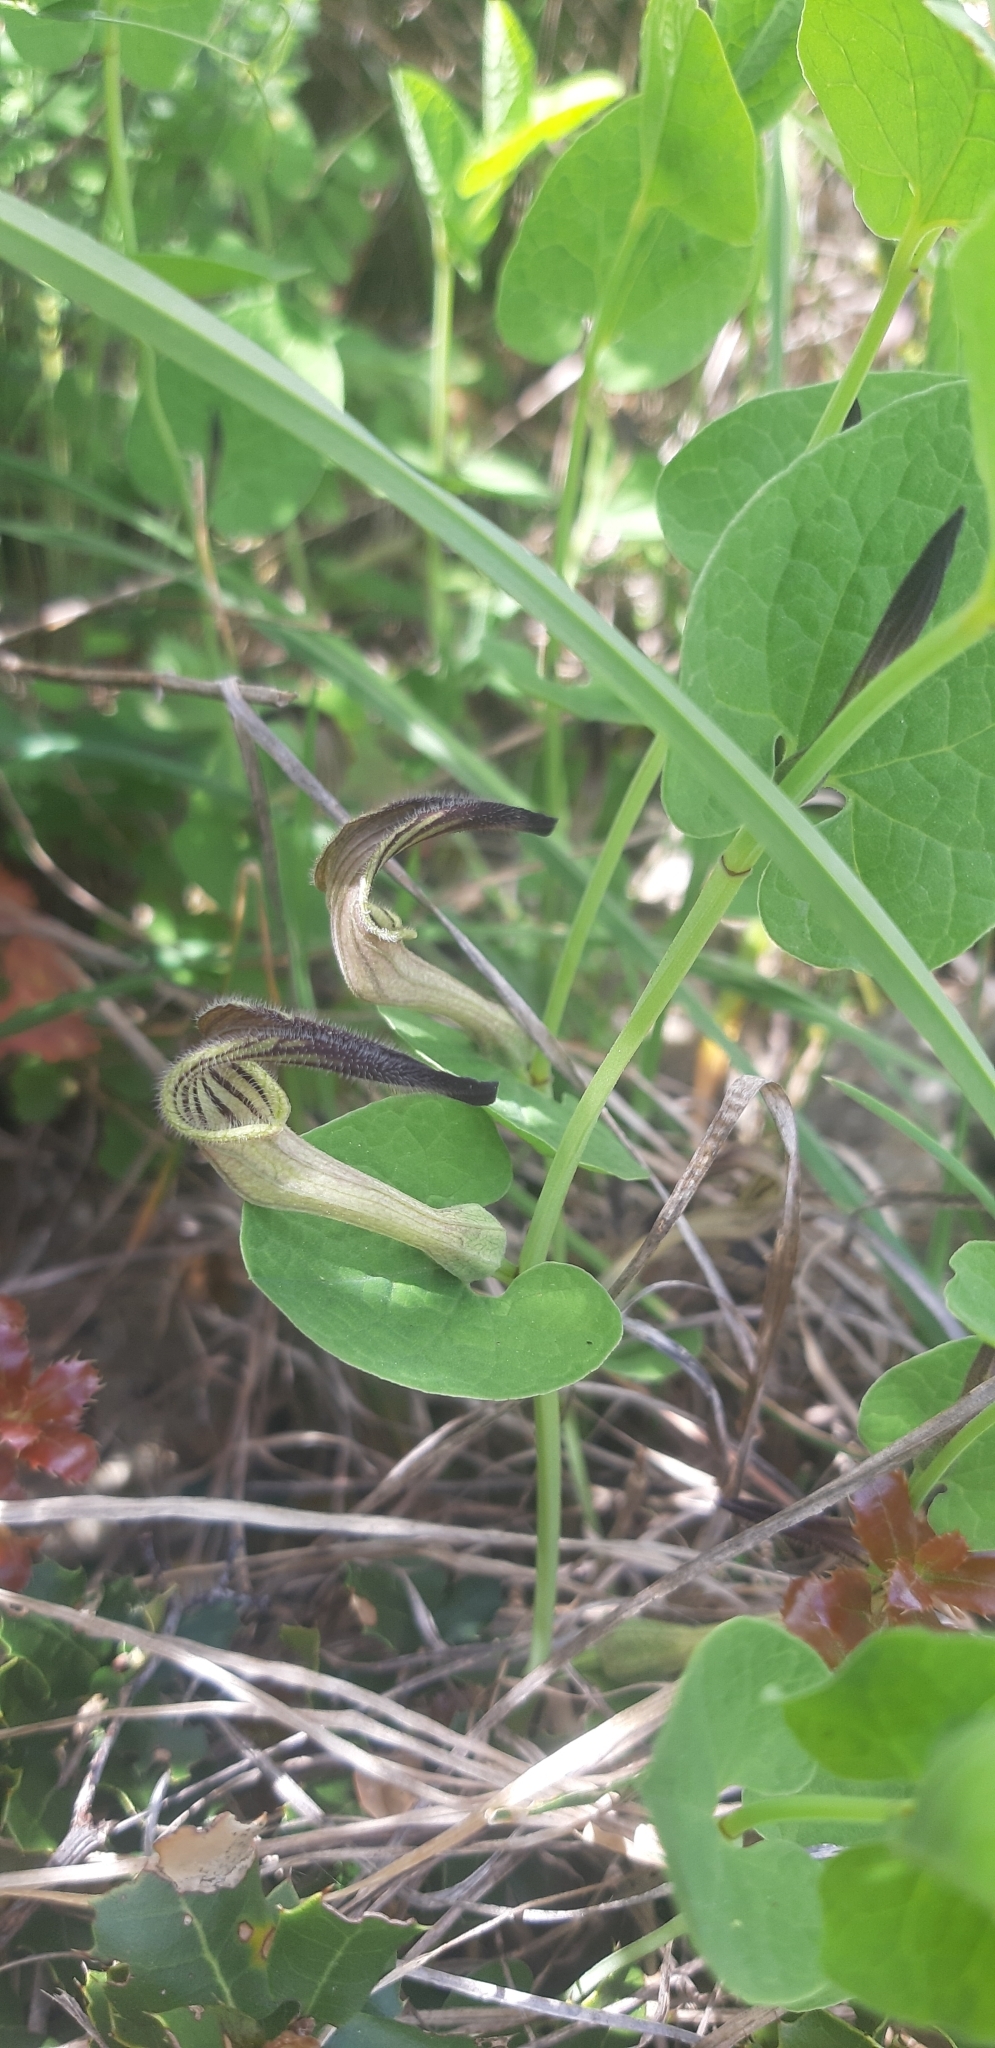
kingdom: Plantae
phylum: Tracheophyta
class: Magnoliopsida
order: Piperales
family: Aristolochiaceae
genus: Aristolochia
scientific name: Aristolochia clusii
